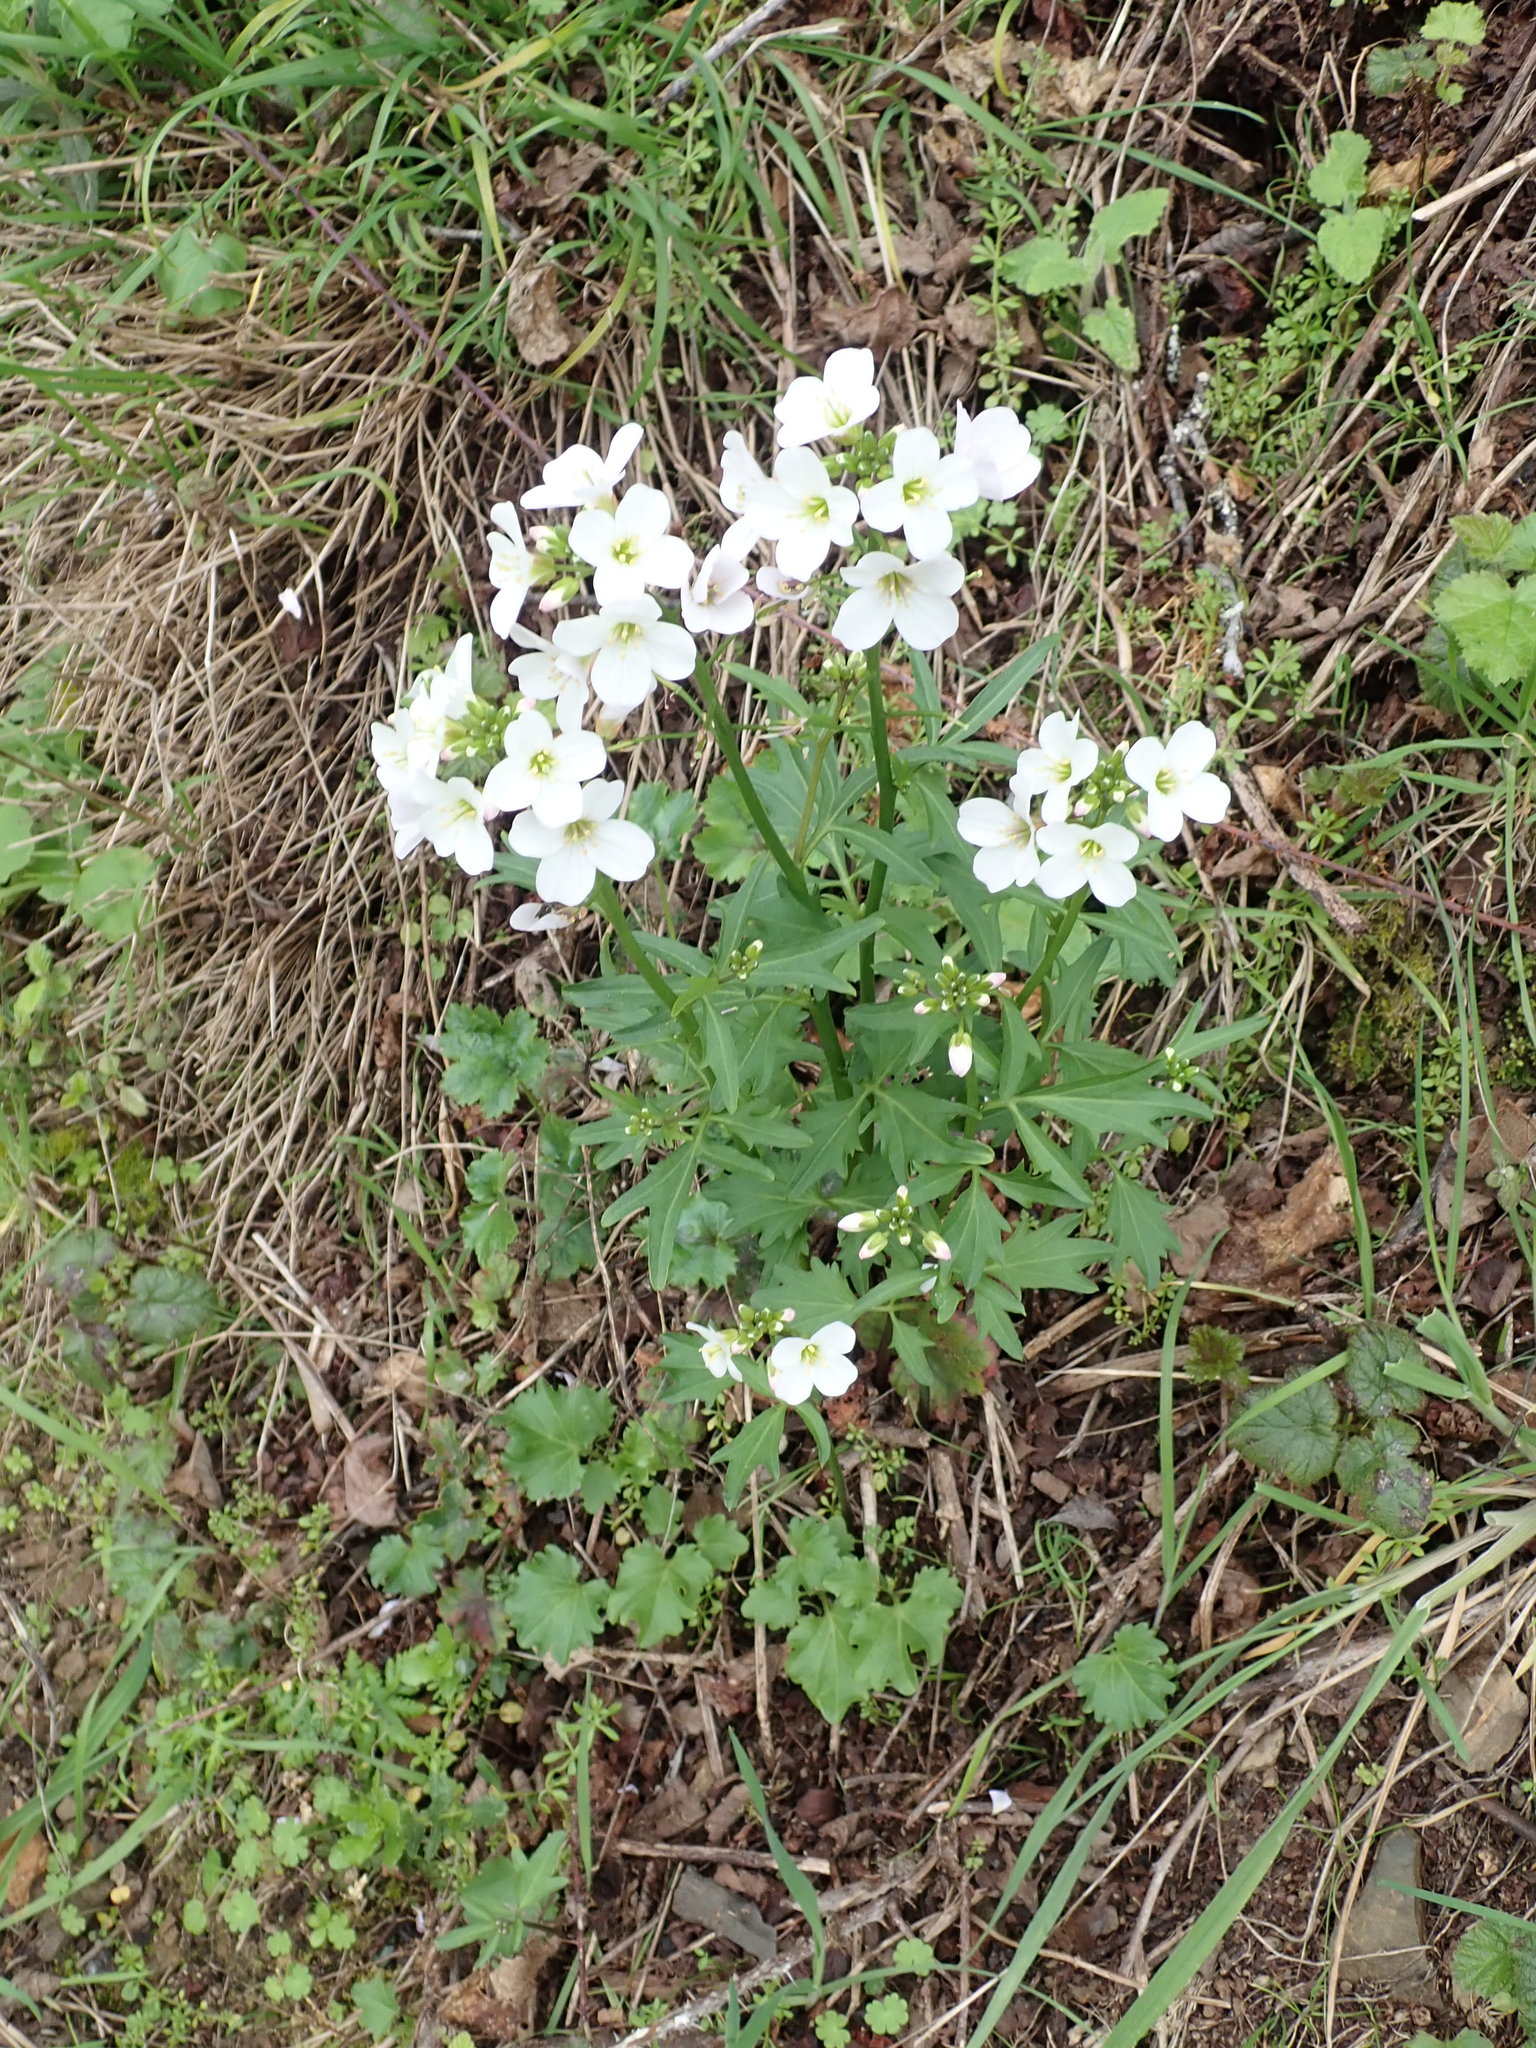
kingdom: Plantae
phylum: Tracheophyta
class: Magnoliopsida
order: Brassicales
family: Brassicaceae
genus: Cardamine
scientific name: Cardamine californica
